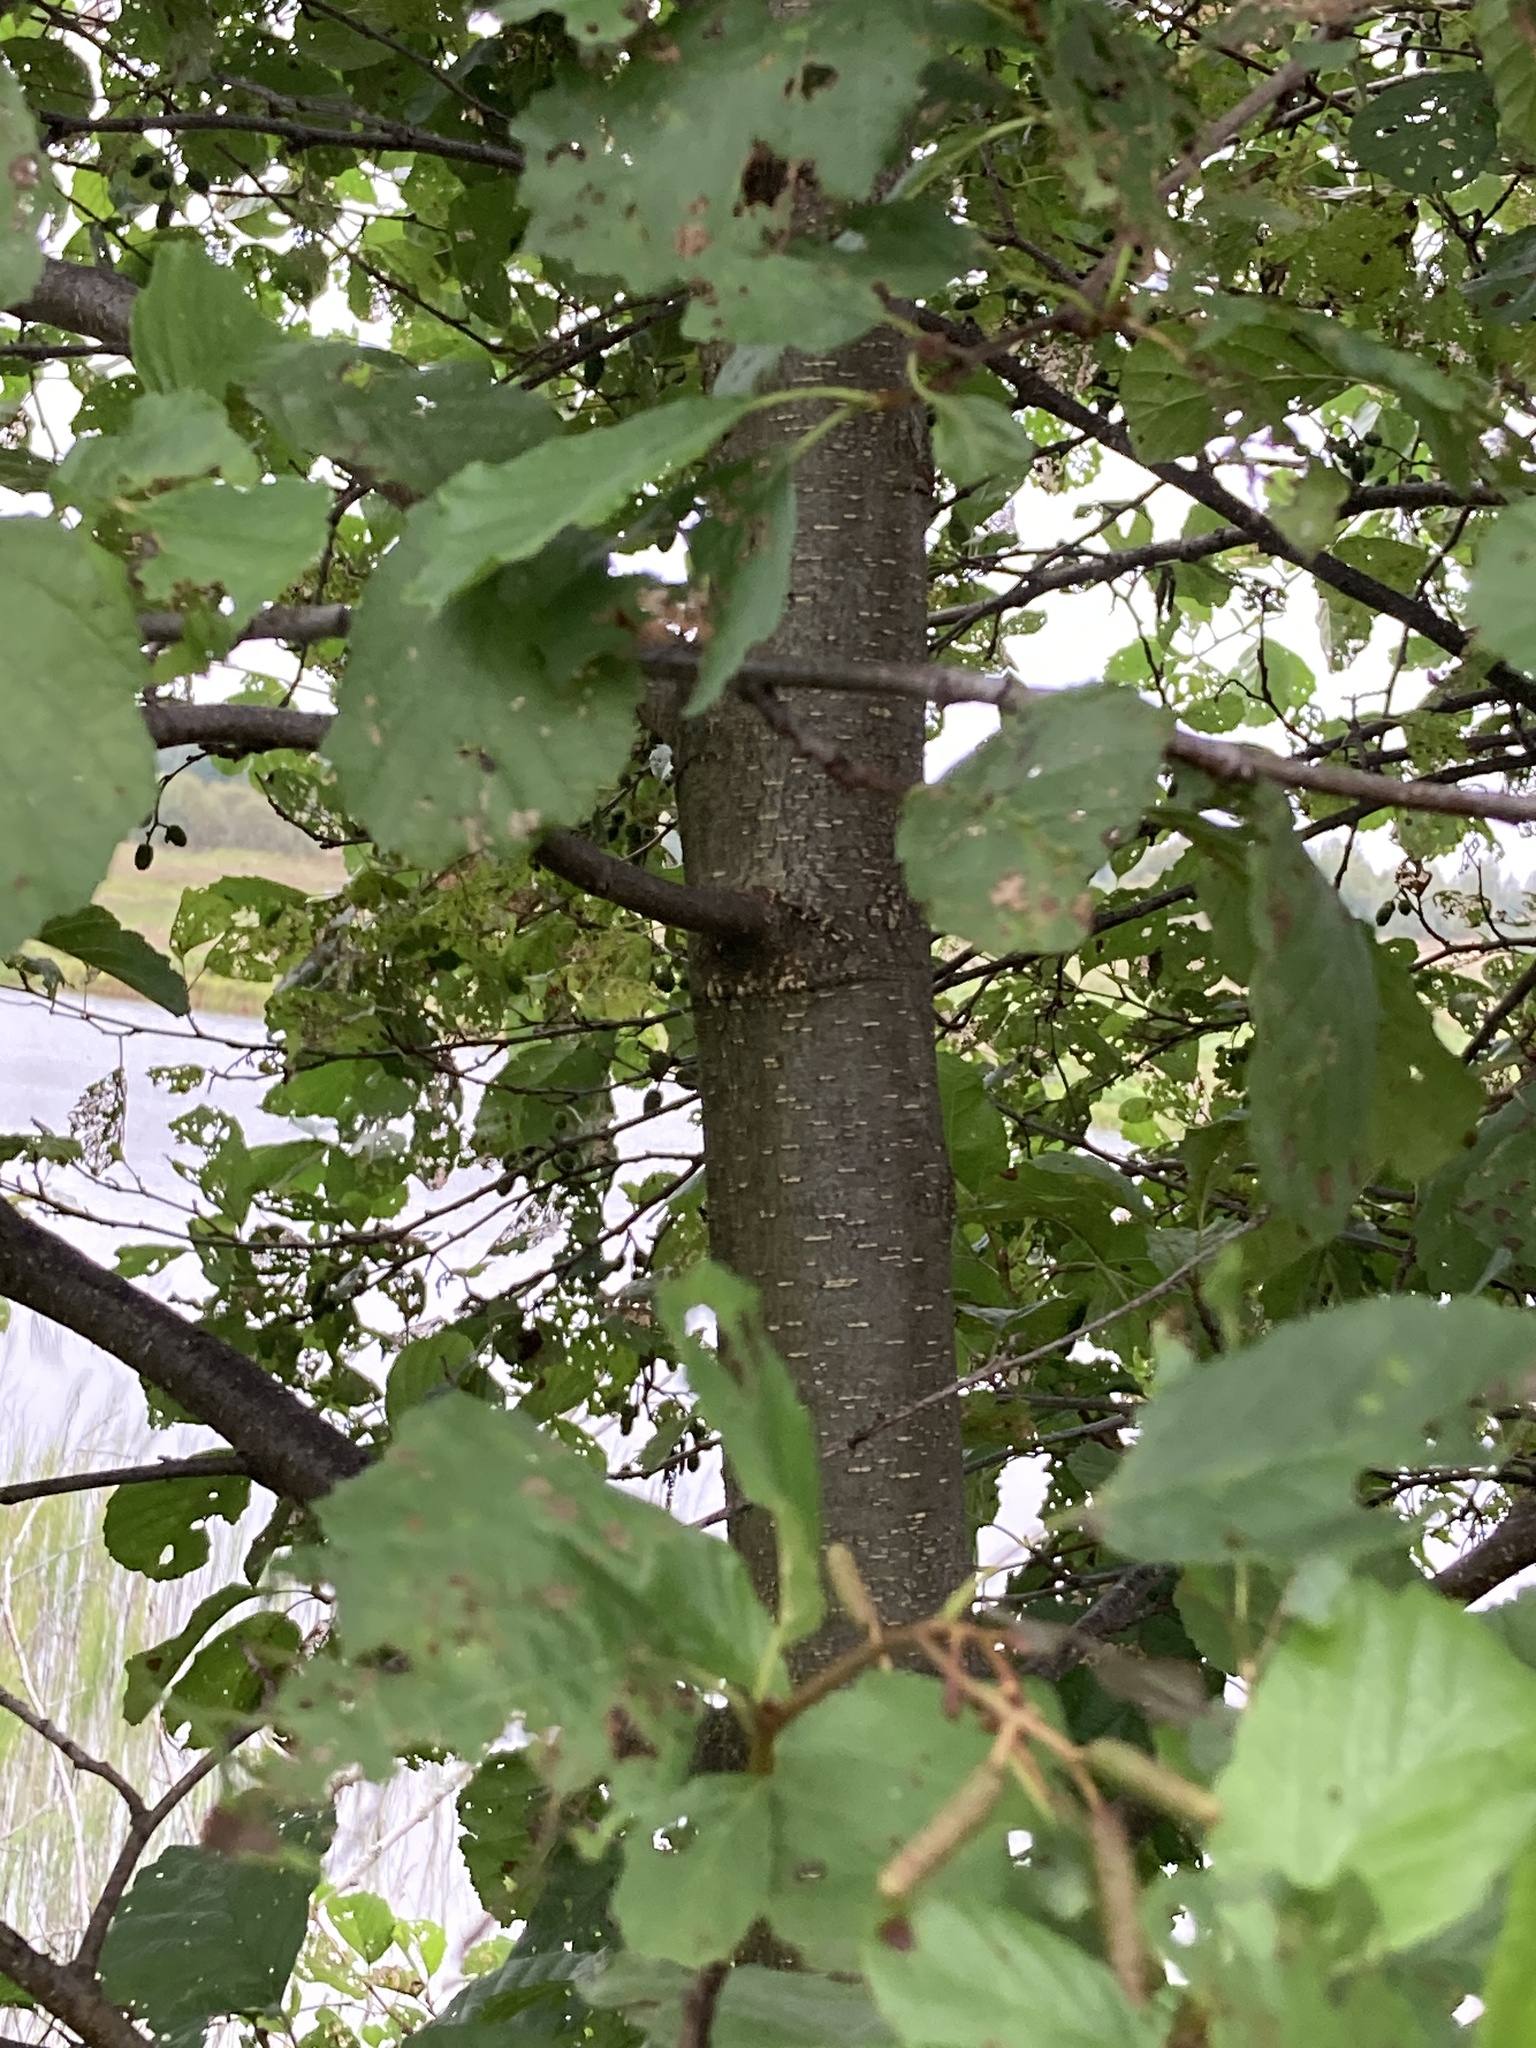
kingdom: Plantae
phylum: Tracheophyta
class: Magnoliopsida
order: Fagales
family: Betulaceae
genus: Alnus
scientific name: Alnus glutinosa
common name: Black alder
